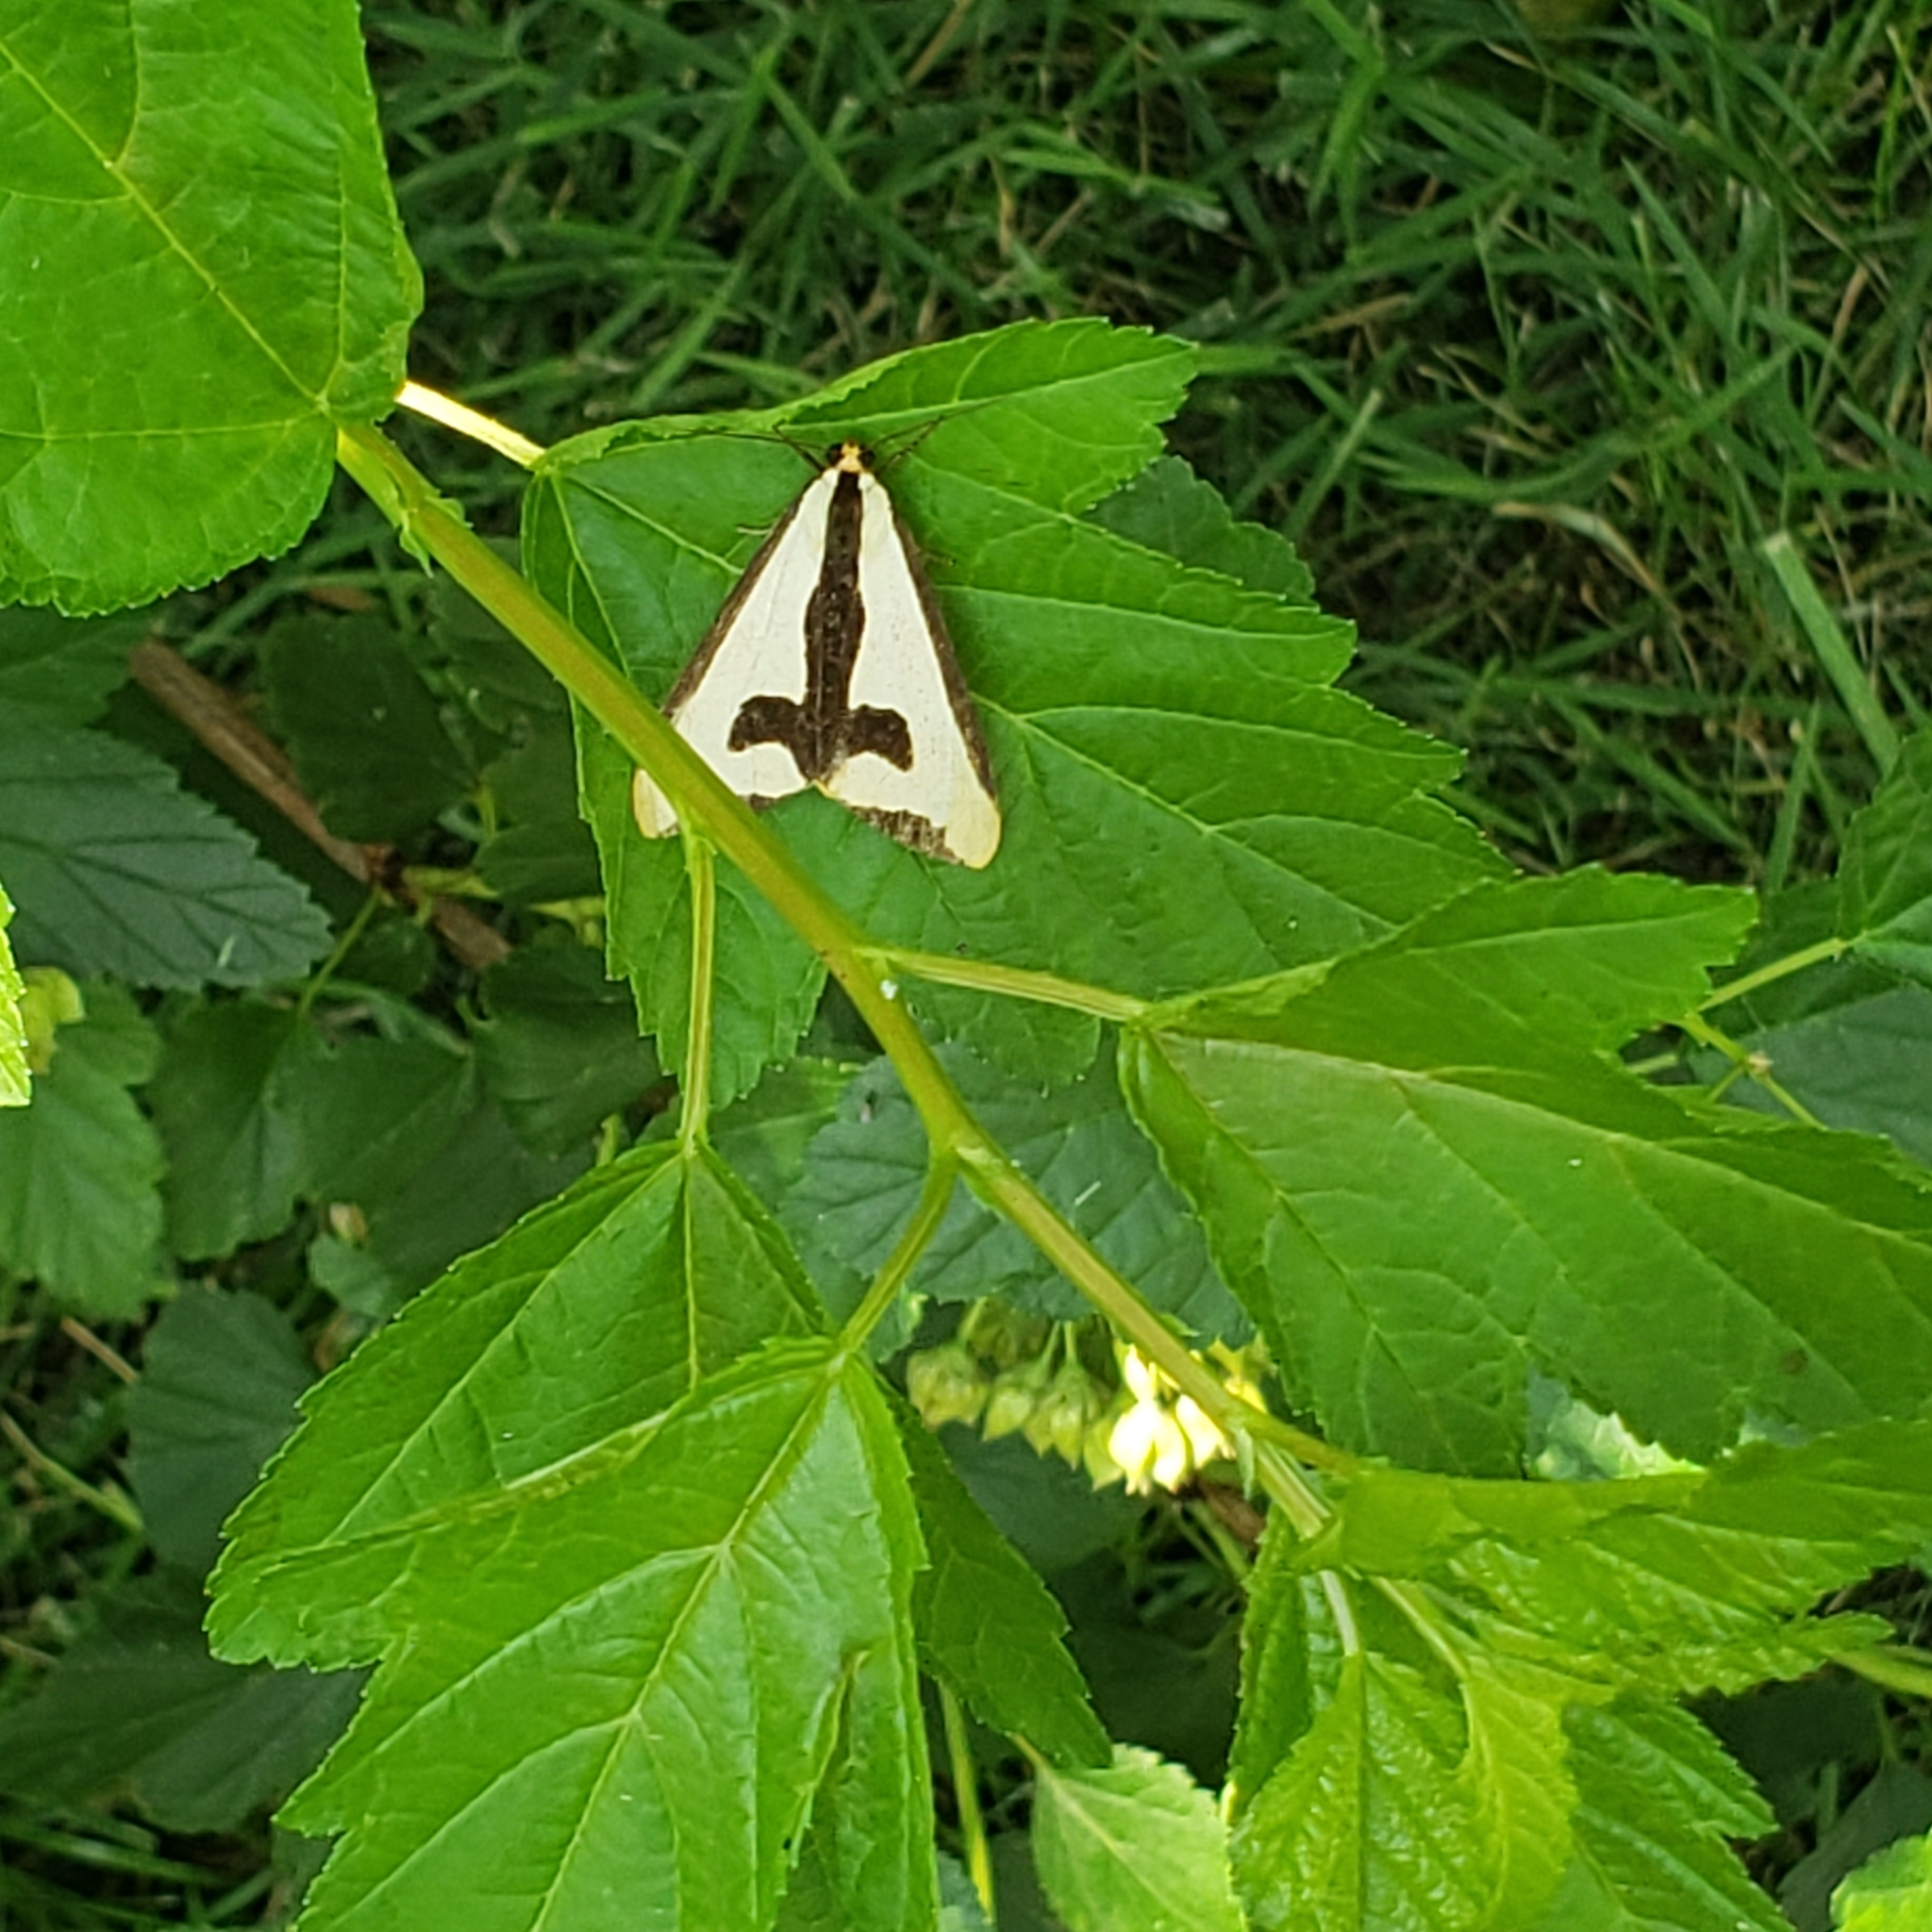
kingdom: Animalia
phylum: Arthropoda
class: Insecta
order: Lepidoptera
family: Erebidae
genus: Haploa
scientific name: Haploa clymene
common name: Clymene moth
